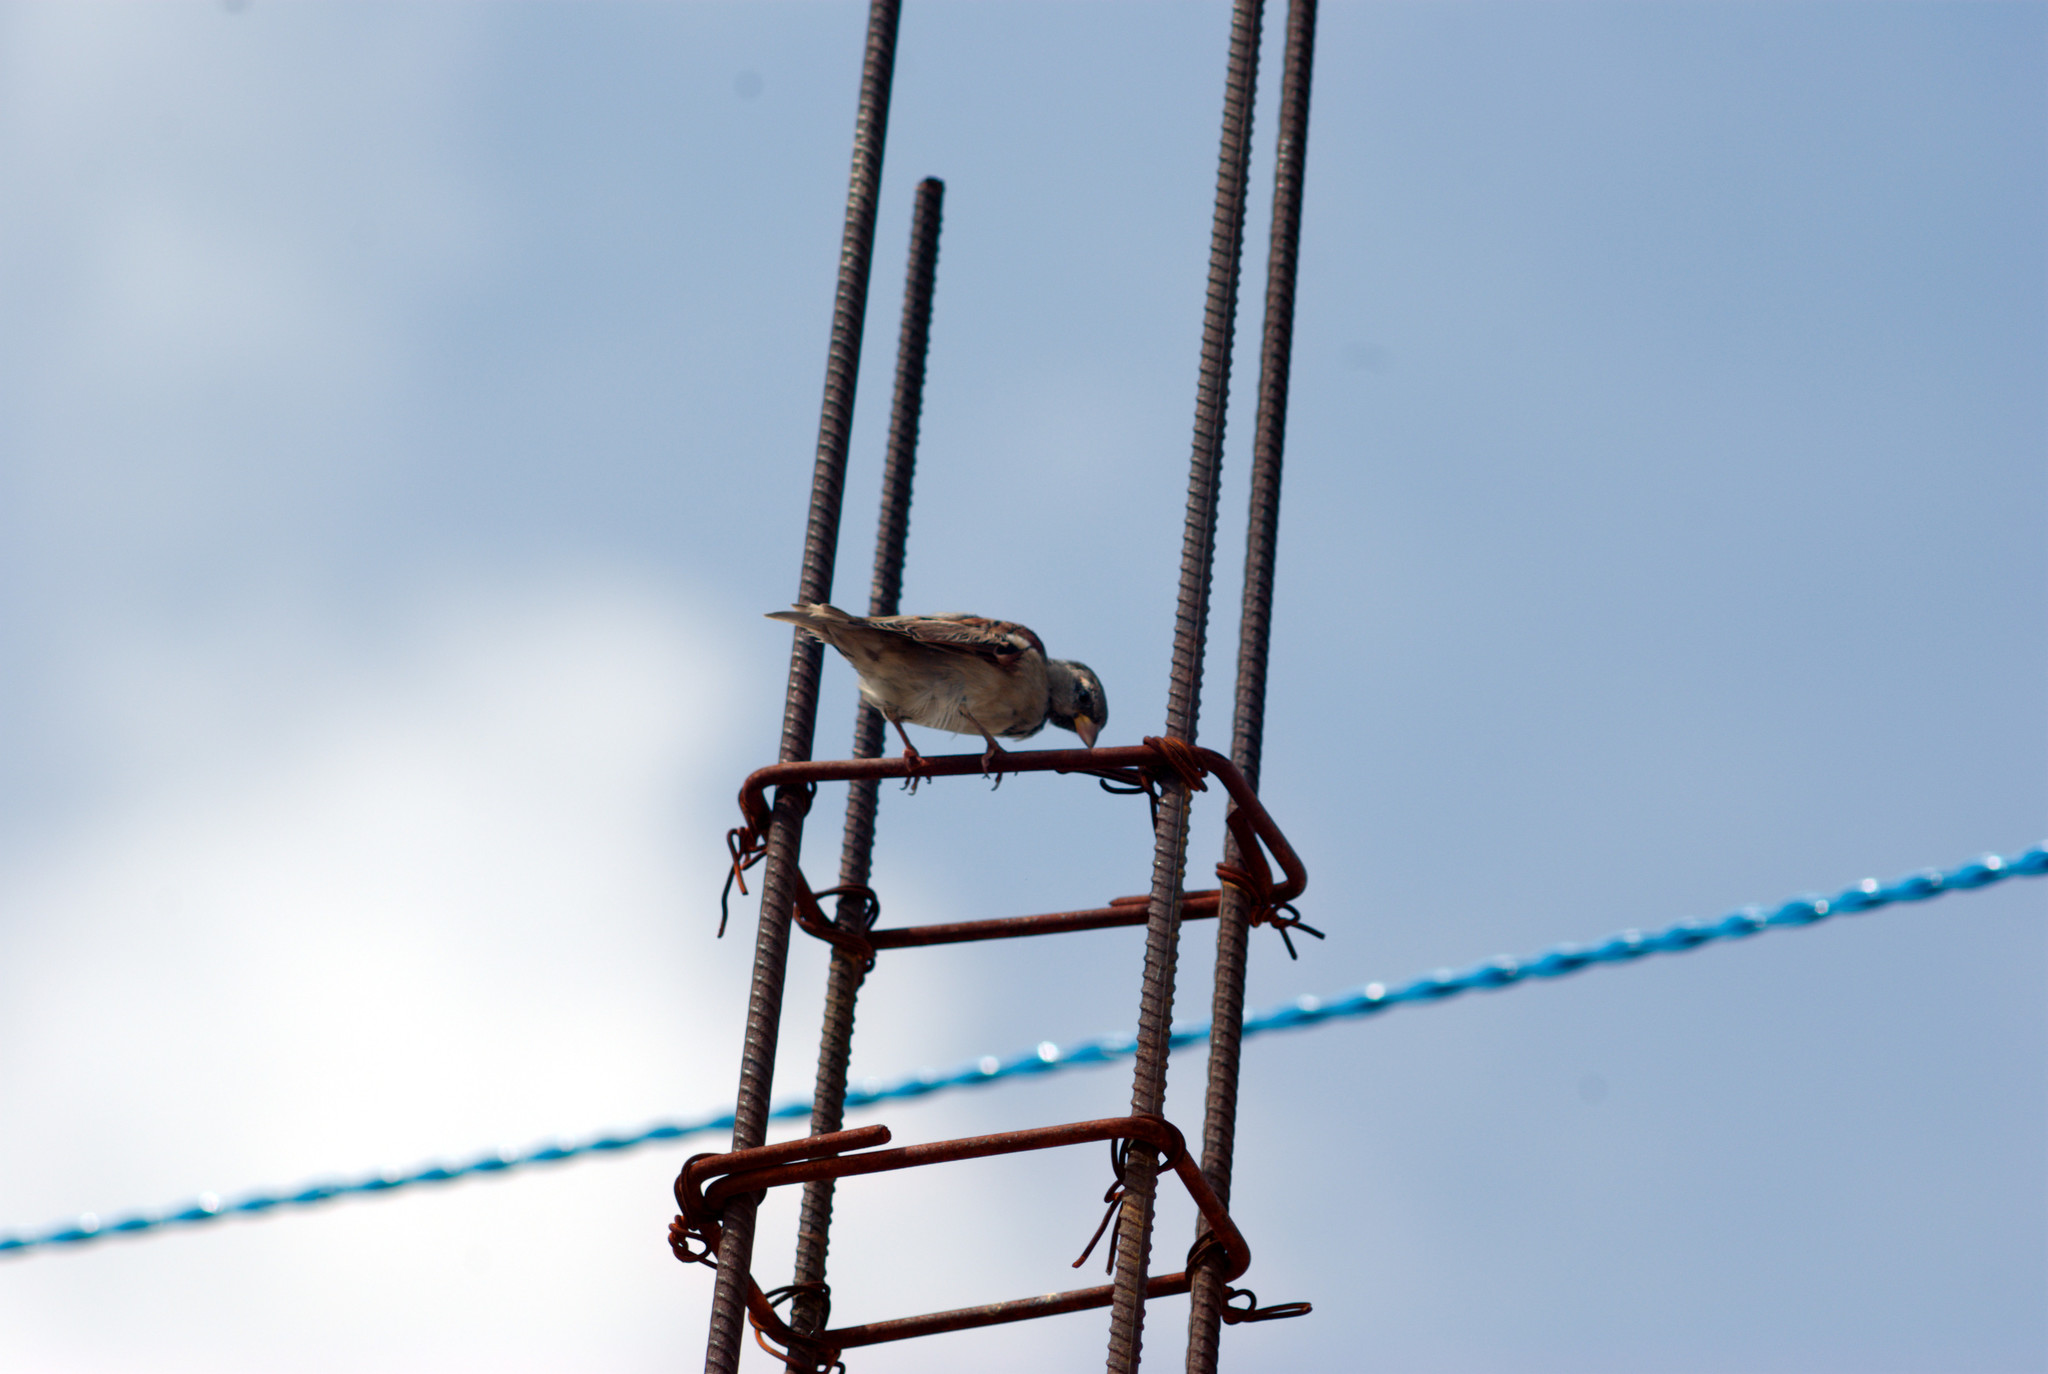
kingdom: Animalia
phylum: Chordata
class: Aves
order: Passeriformes
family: Passeridae
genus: Passer
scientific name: Passer domesticus
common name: House sparrow
